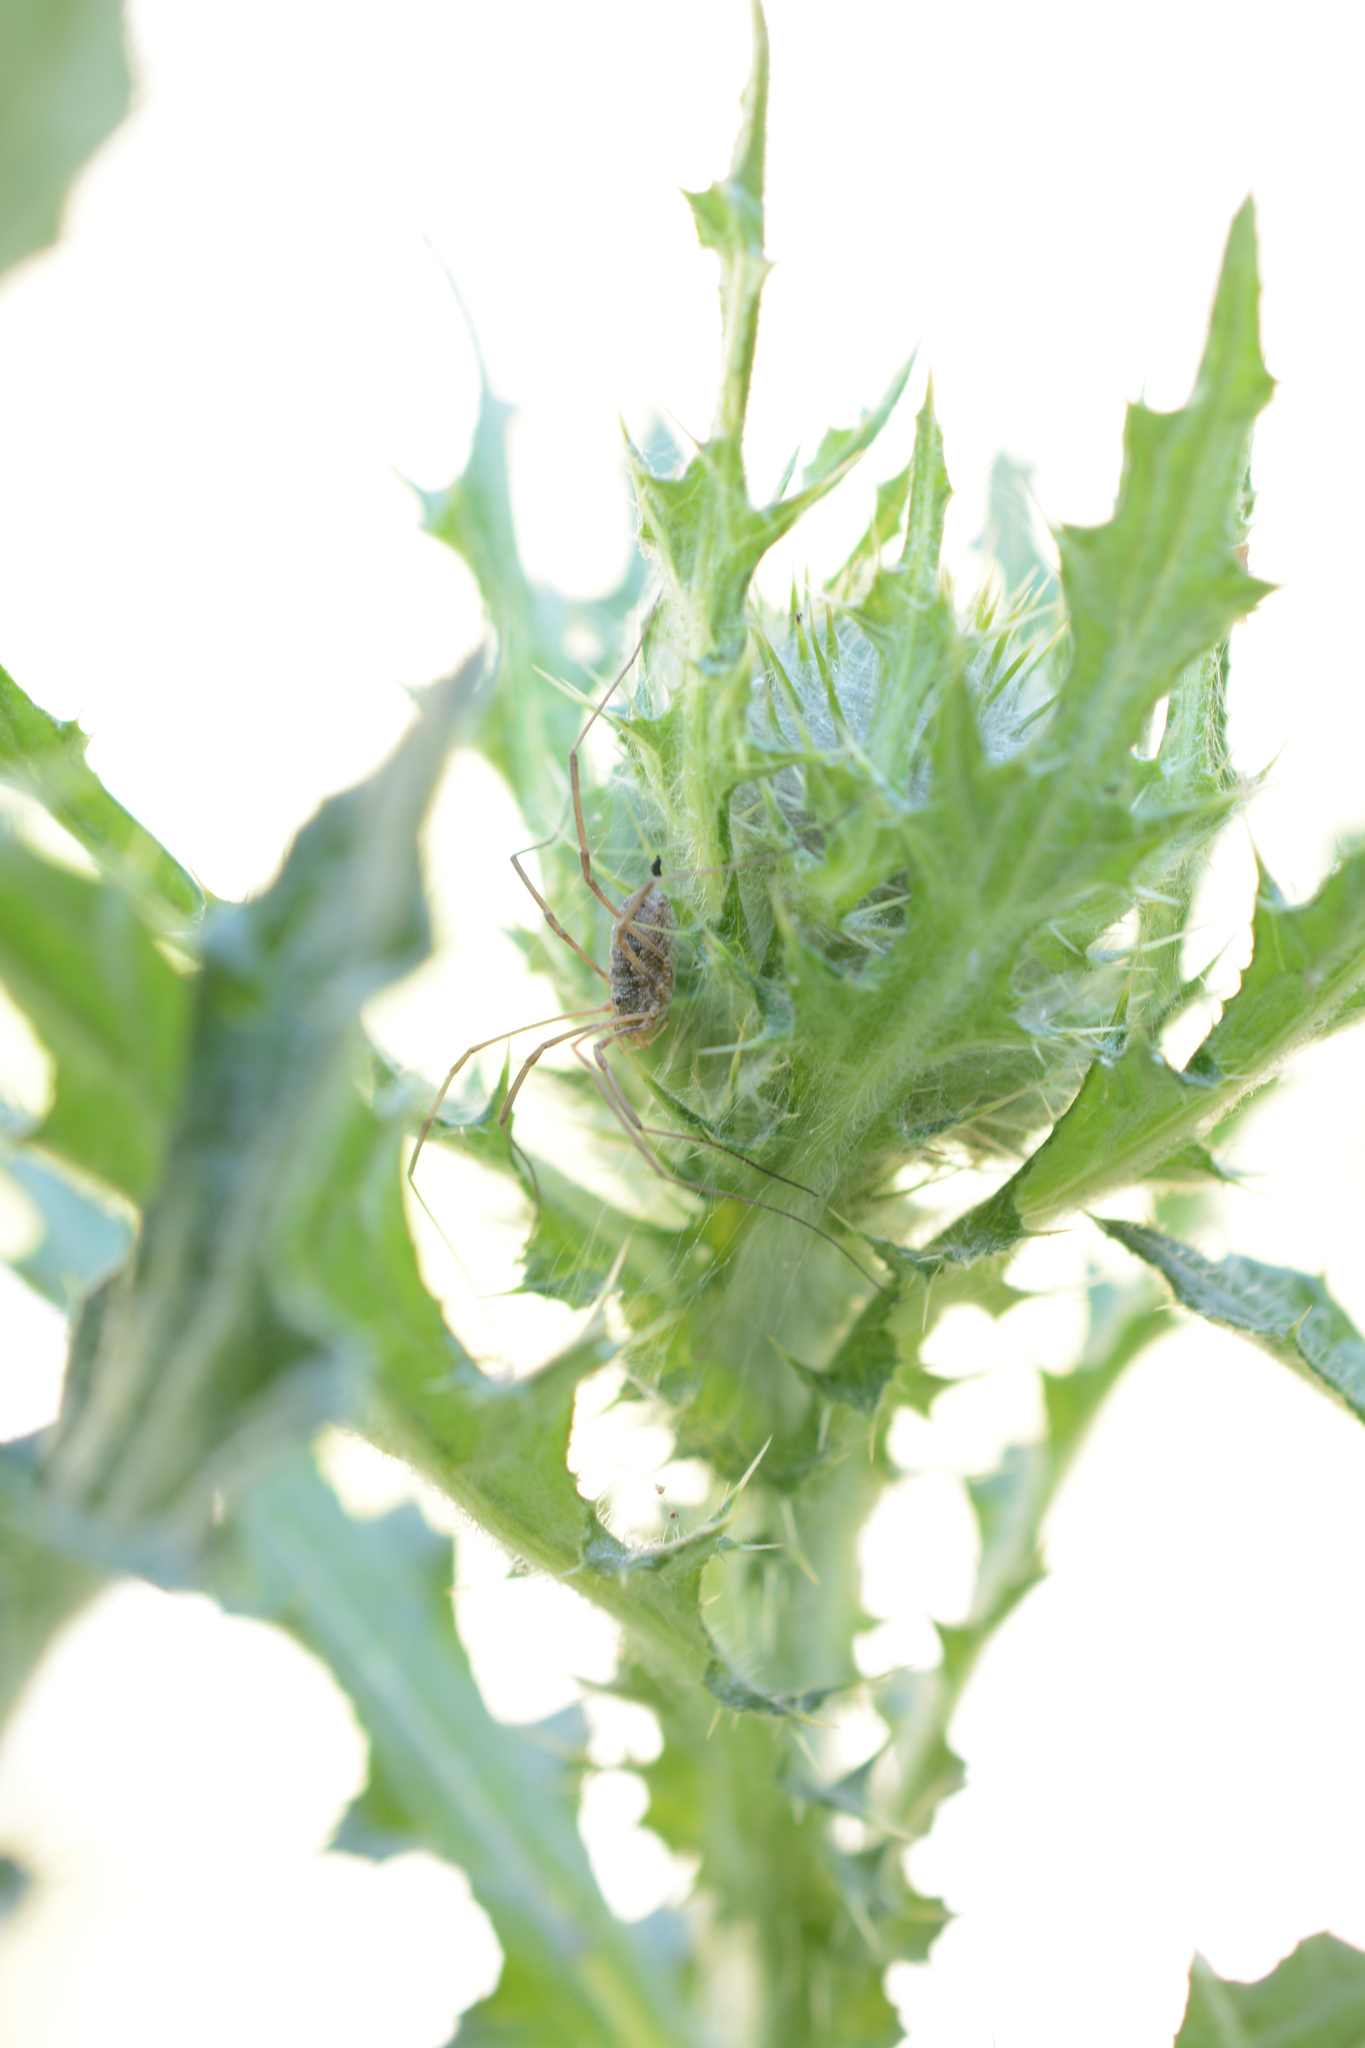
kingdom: Animalia
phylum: Arthropoda
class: Arachnida
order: Opiliones
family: Phalangiidae
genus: Phalangium
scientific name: Phalangium opilio
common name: Daddy longleg
